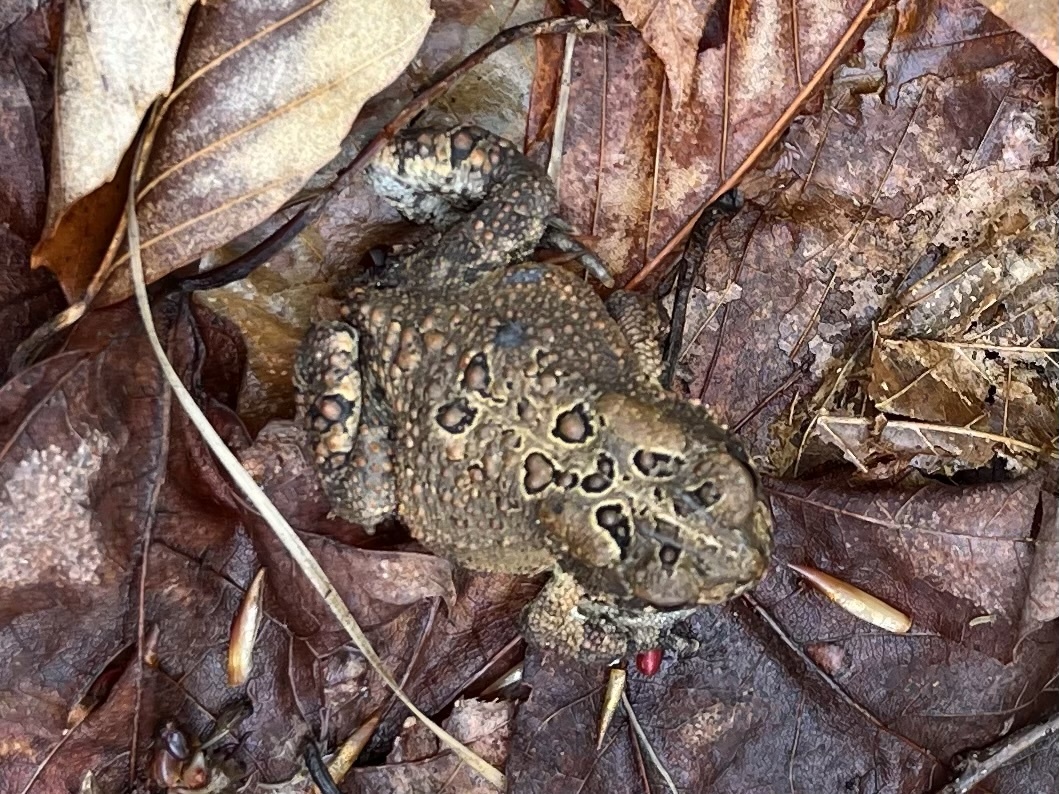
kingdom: Animalia
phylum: Chordata
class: Amphibia
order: Anura
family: Bufonidae
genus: Anaxyrus
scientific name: Anaxyrus americanus
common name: American toad
